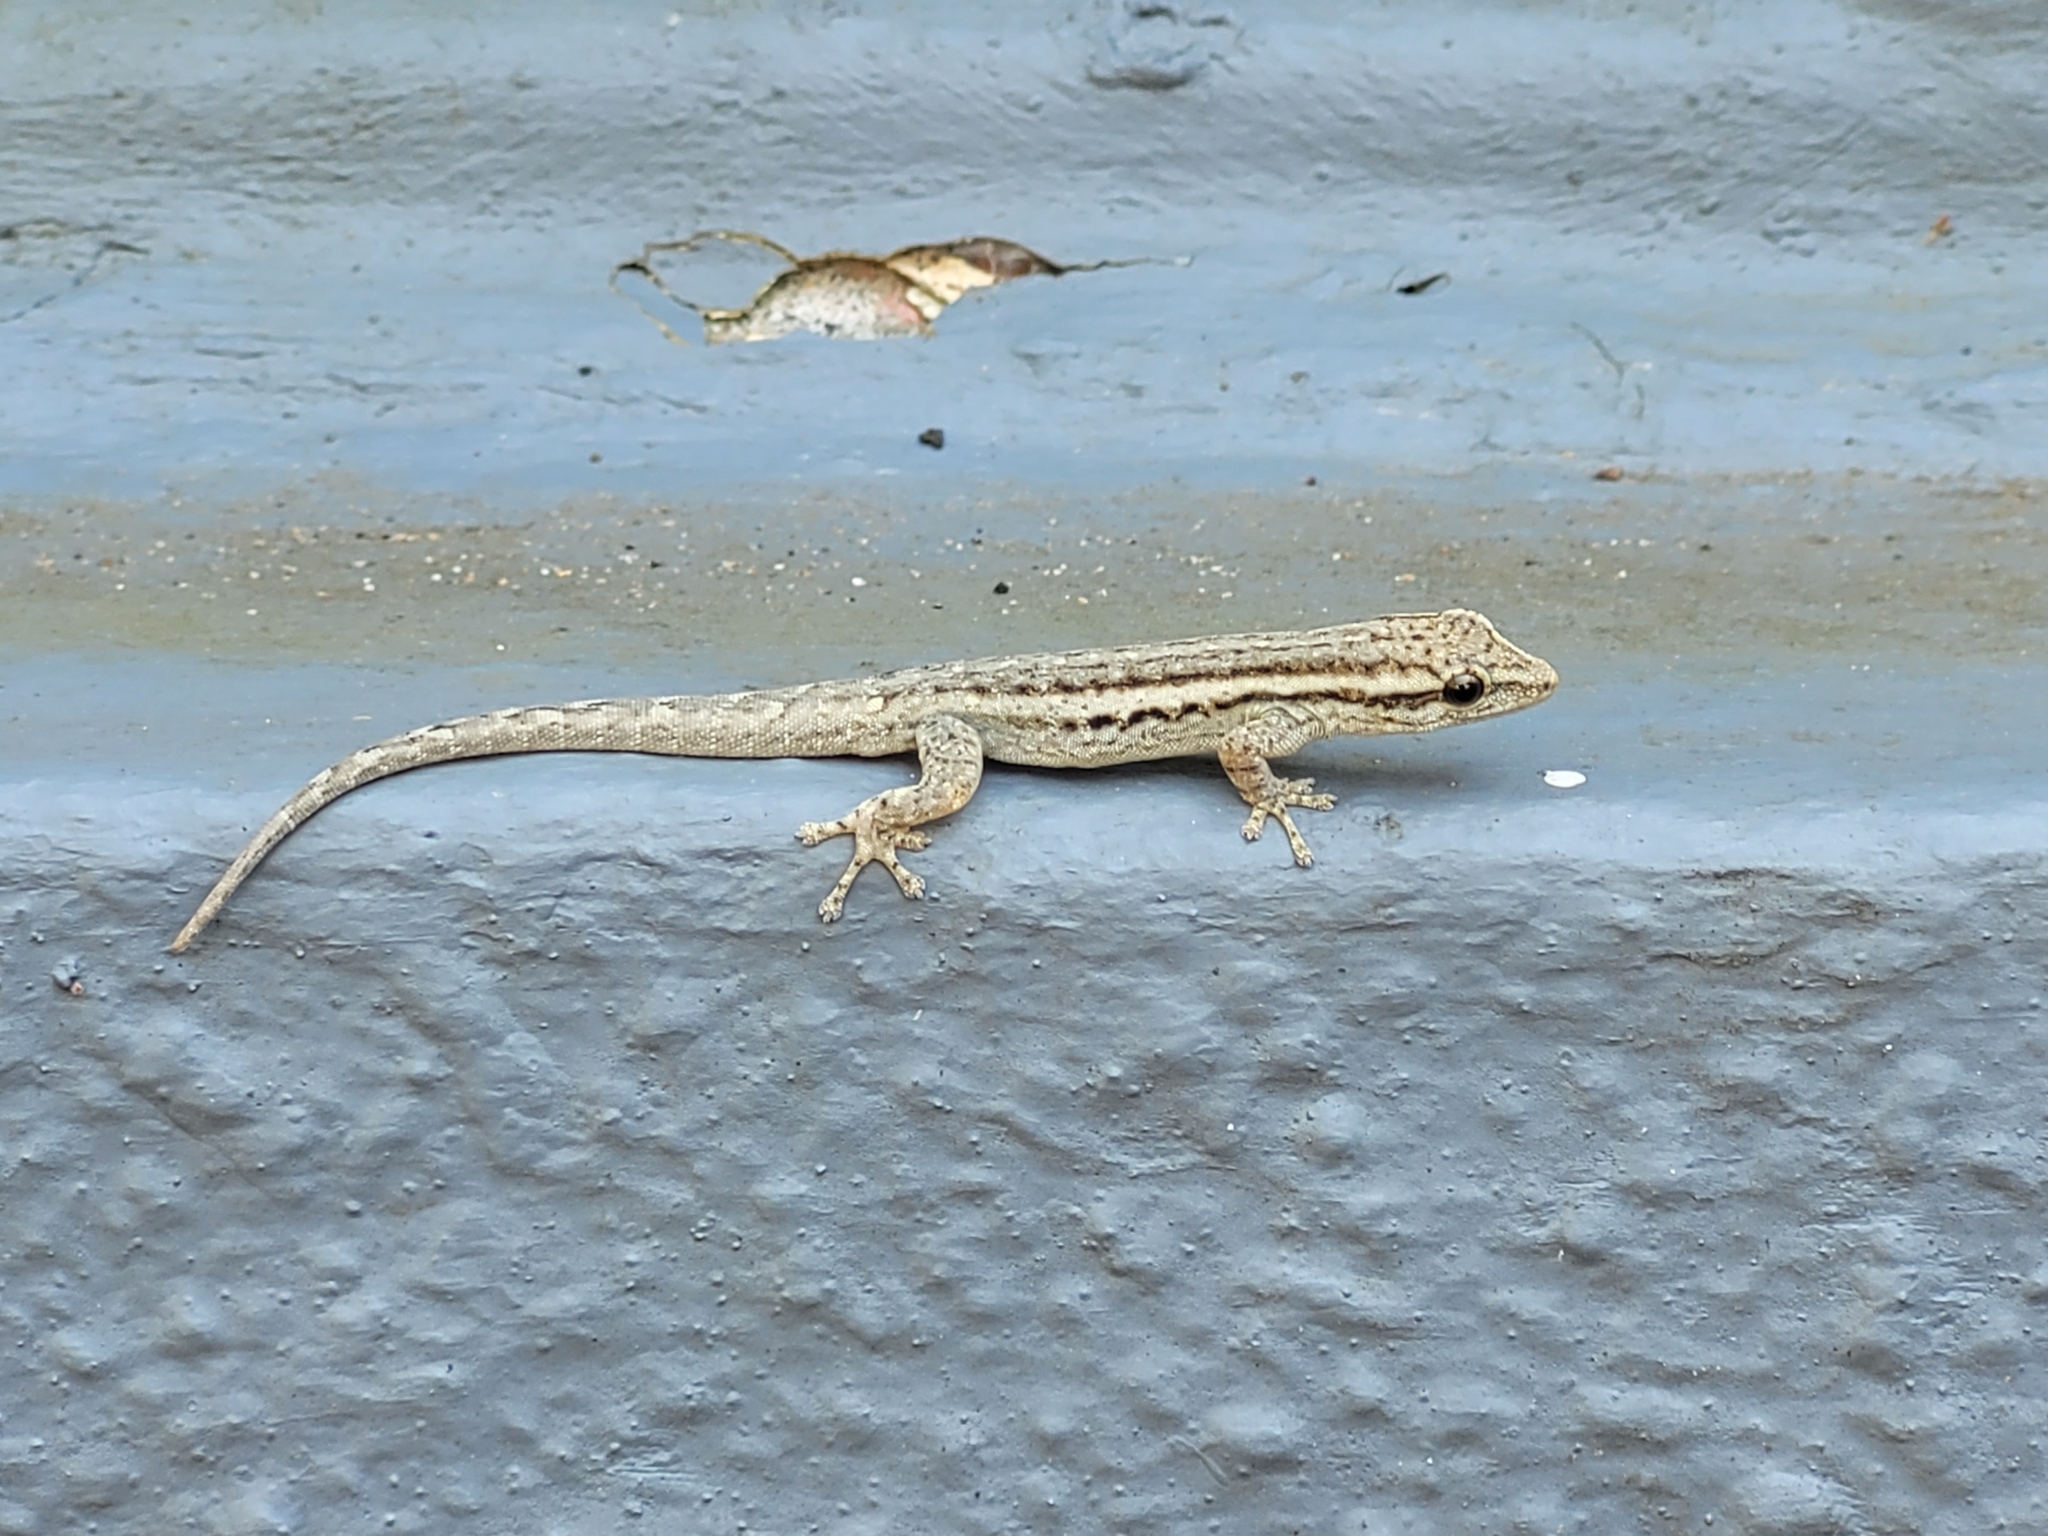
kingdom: Animalia
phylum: Chordata
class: Squamata
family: Gekkonidae
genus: Lygodactylus
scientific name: Lygodactylus capensis
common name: Cape dwarf gecko
